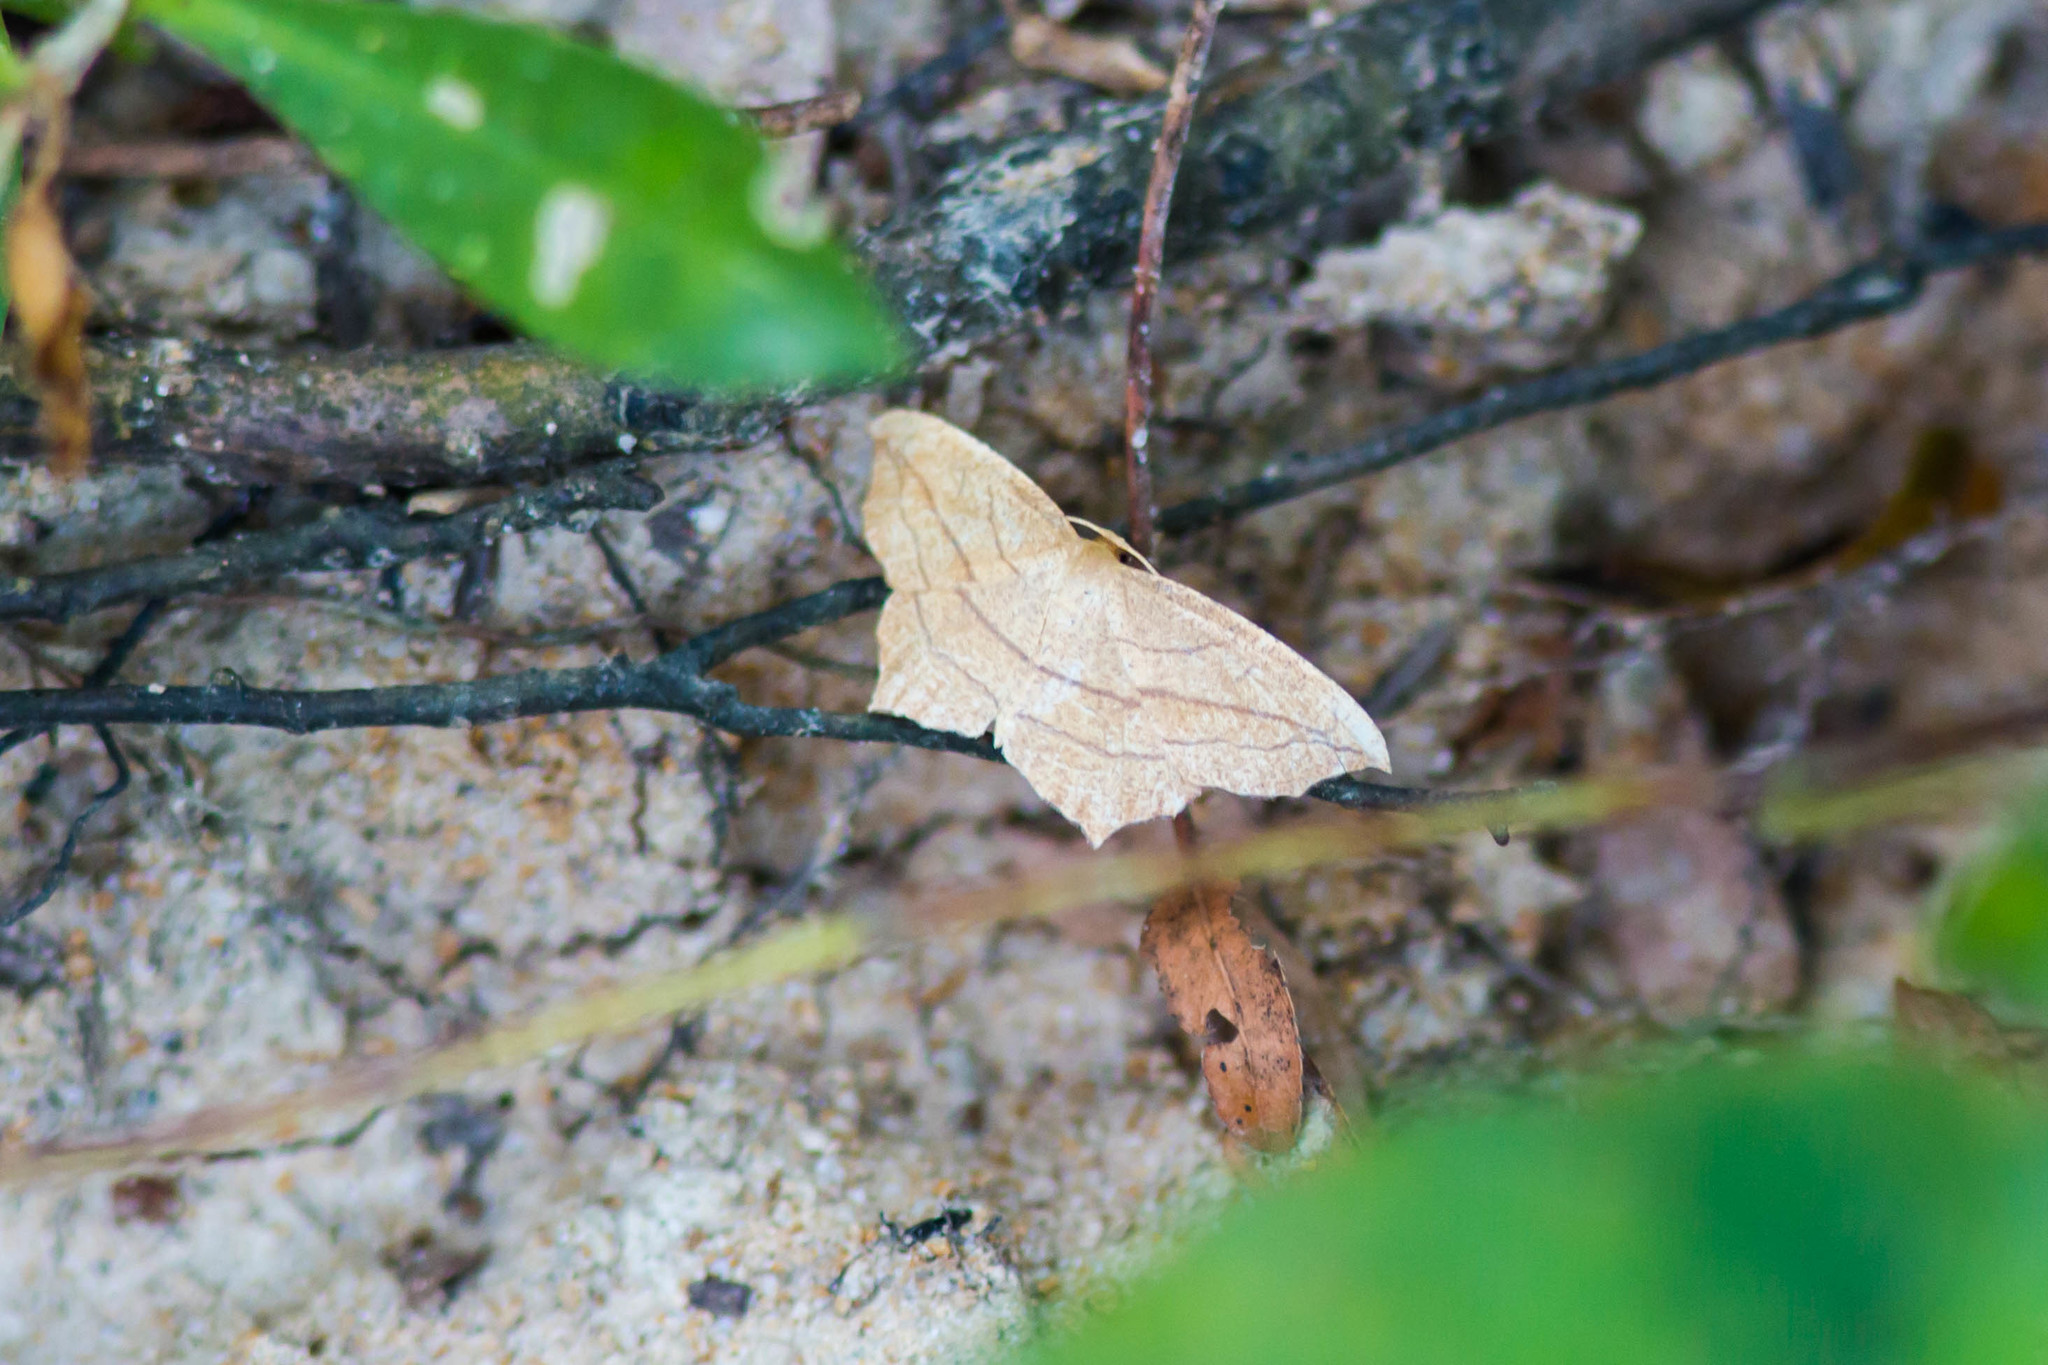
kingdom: Animalia
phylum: Arthropoda
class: Insecta
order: Lepidoptera
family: Geometridae
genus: Timandra
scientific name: Timandra amaturaria
